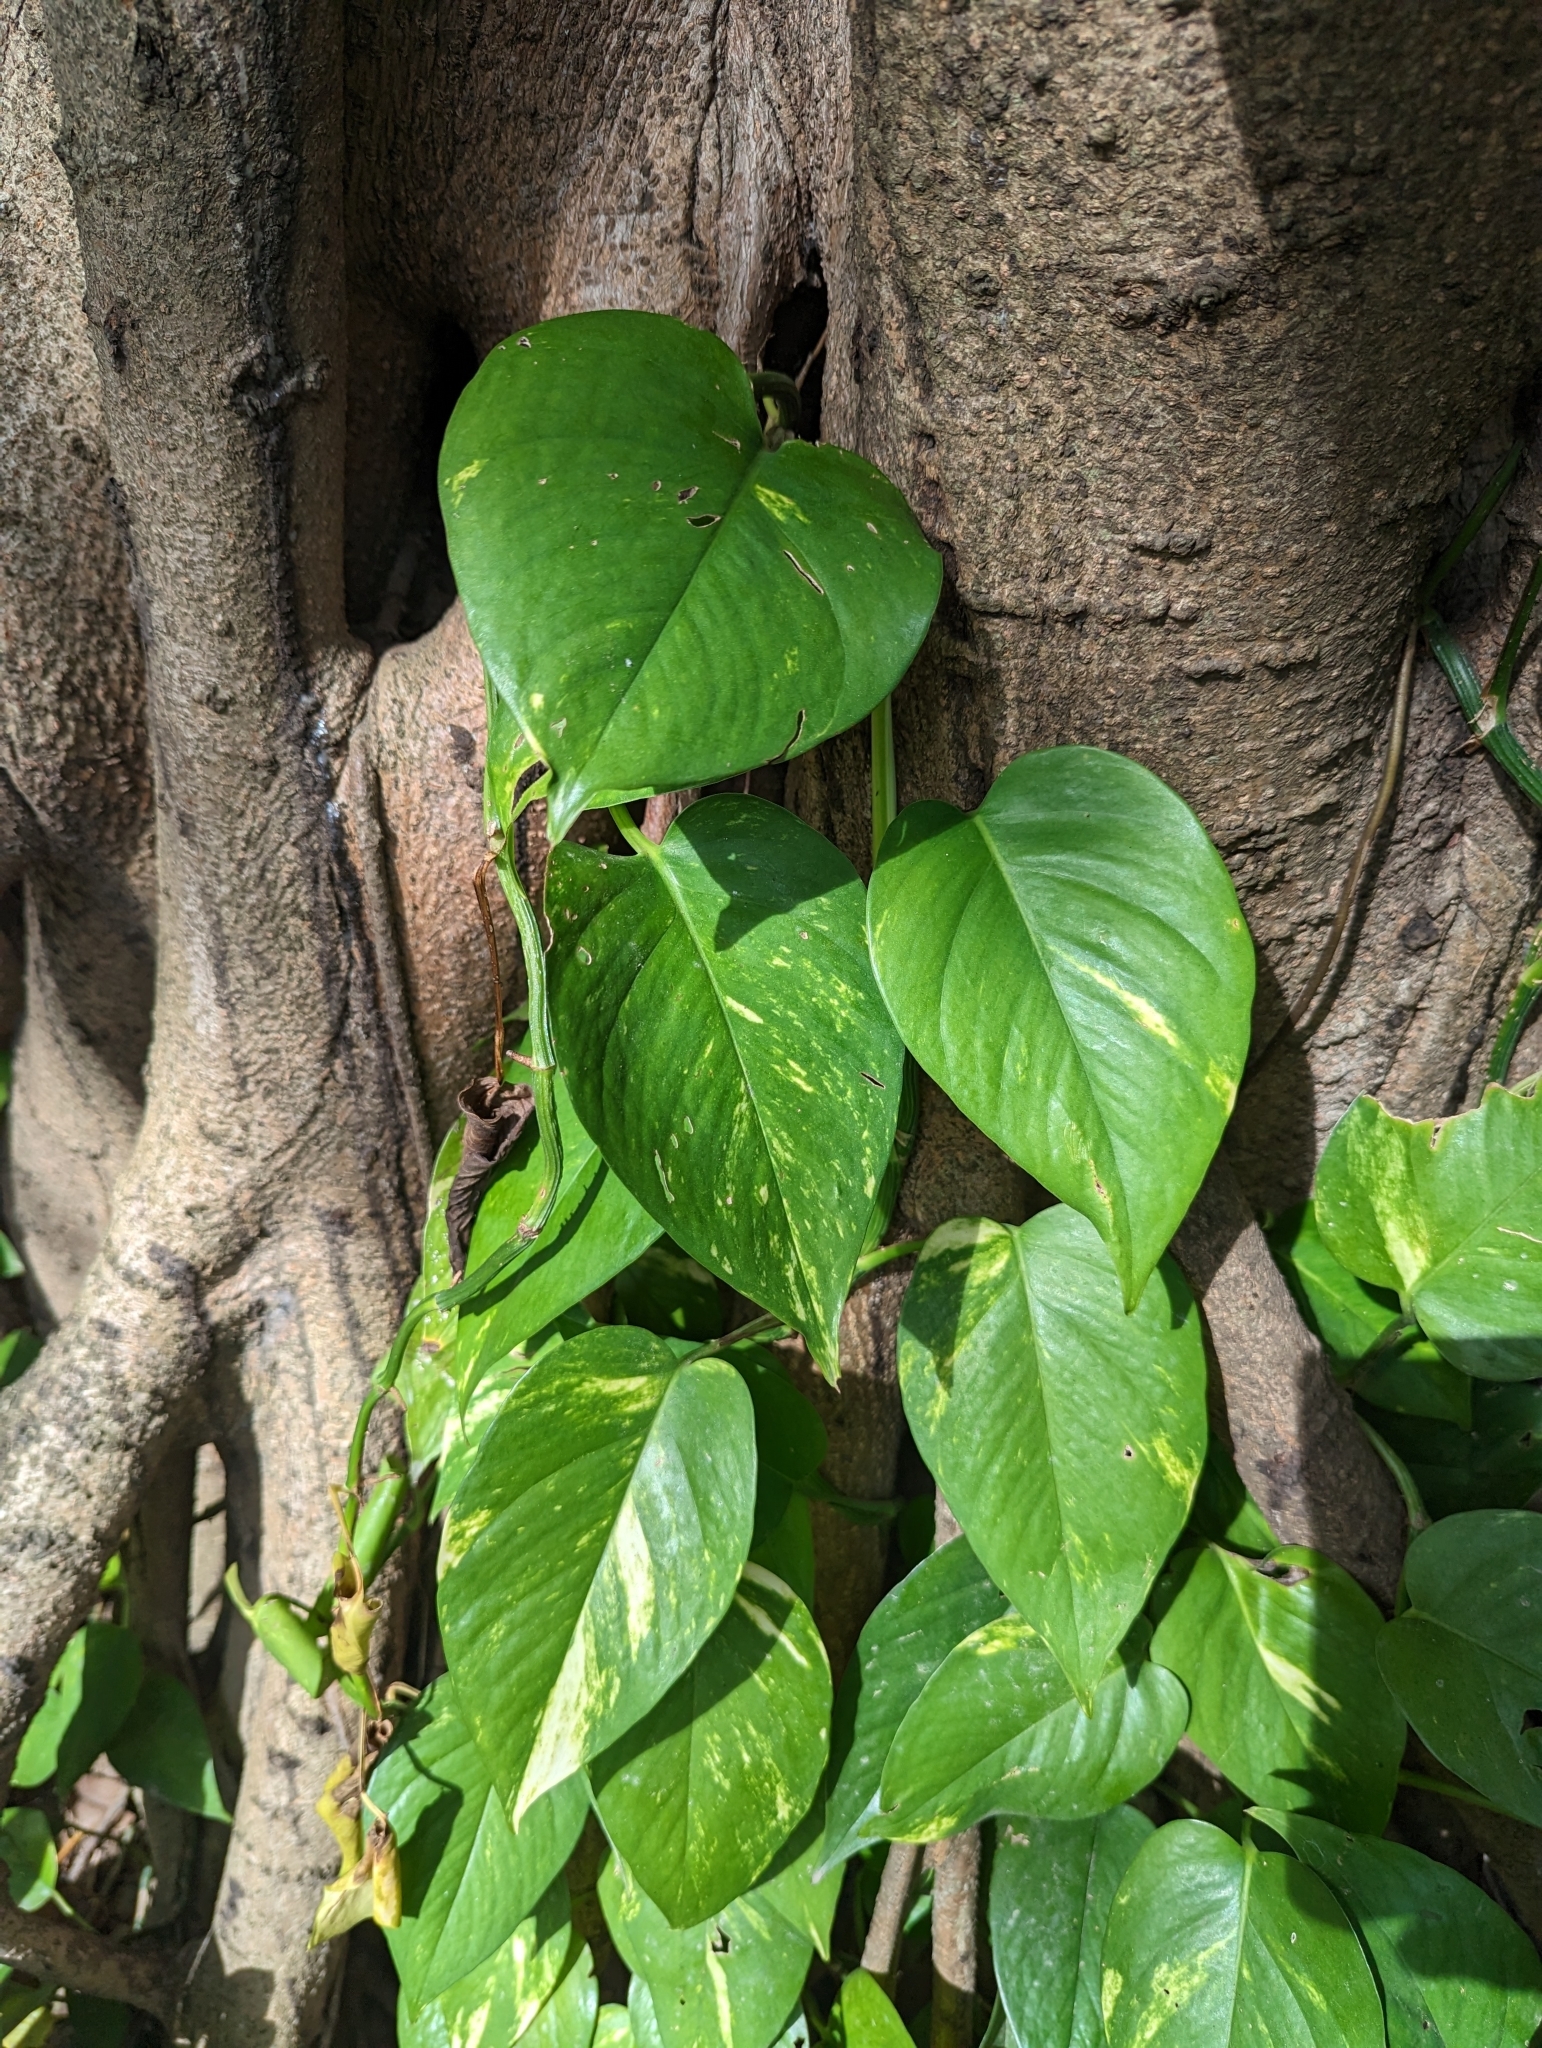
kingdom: Plantae
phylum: Tracheophyta
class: Liliopsida
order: Alismatales
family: Araceae
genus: Epipremnum
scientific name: Epipremnum aureum
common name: Golden hunter's-robe
